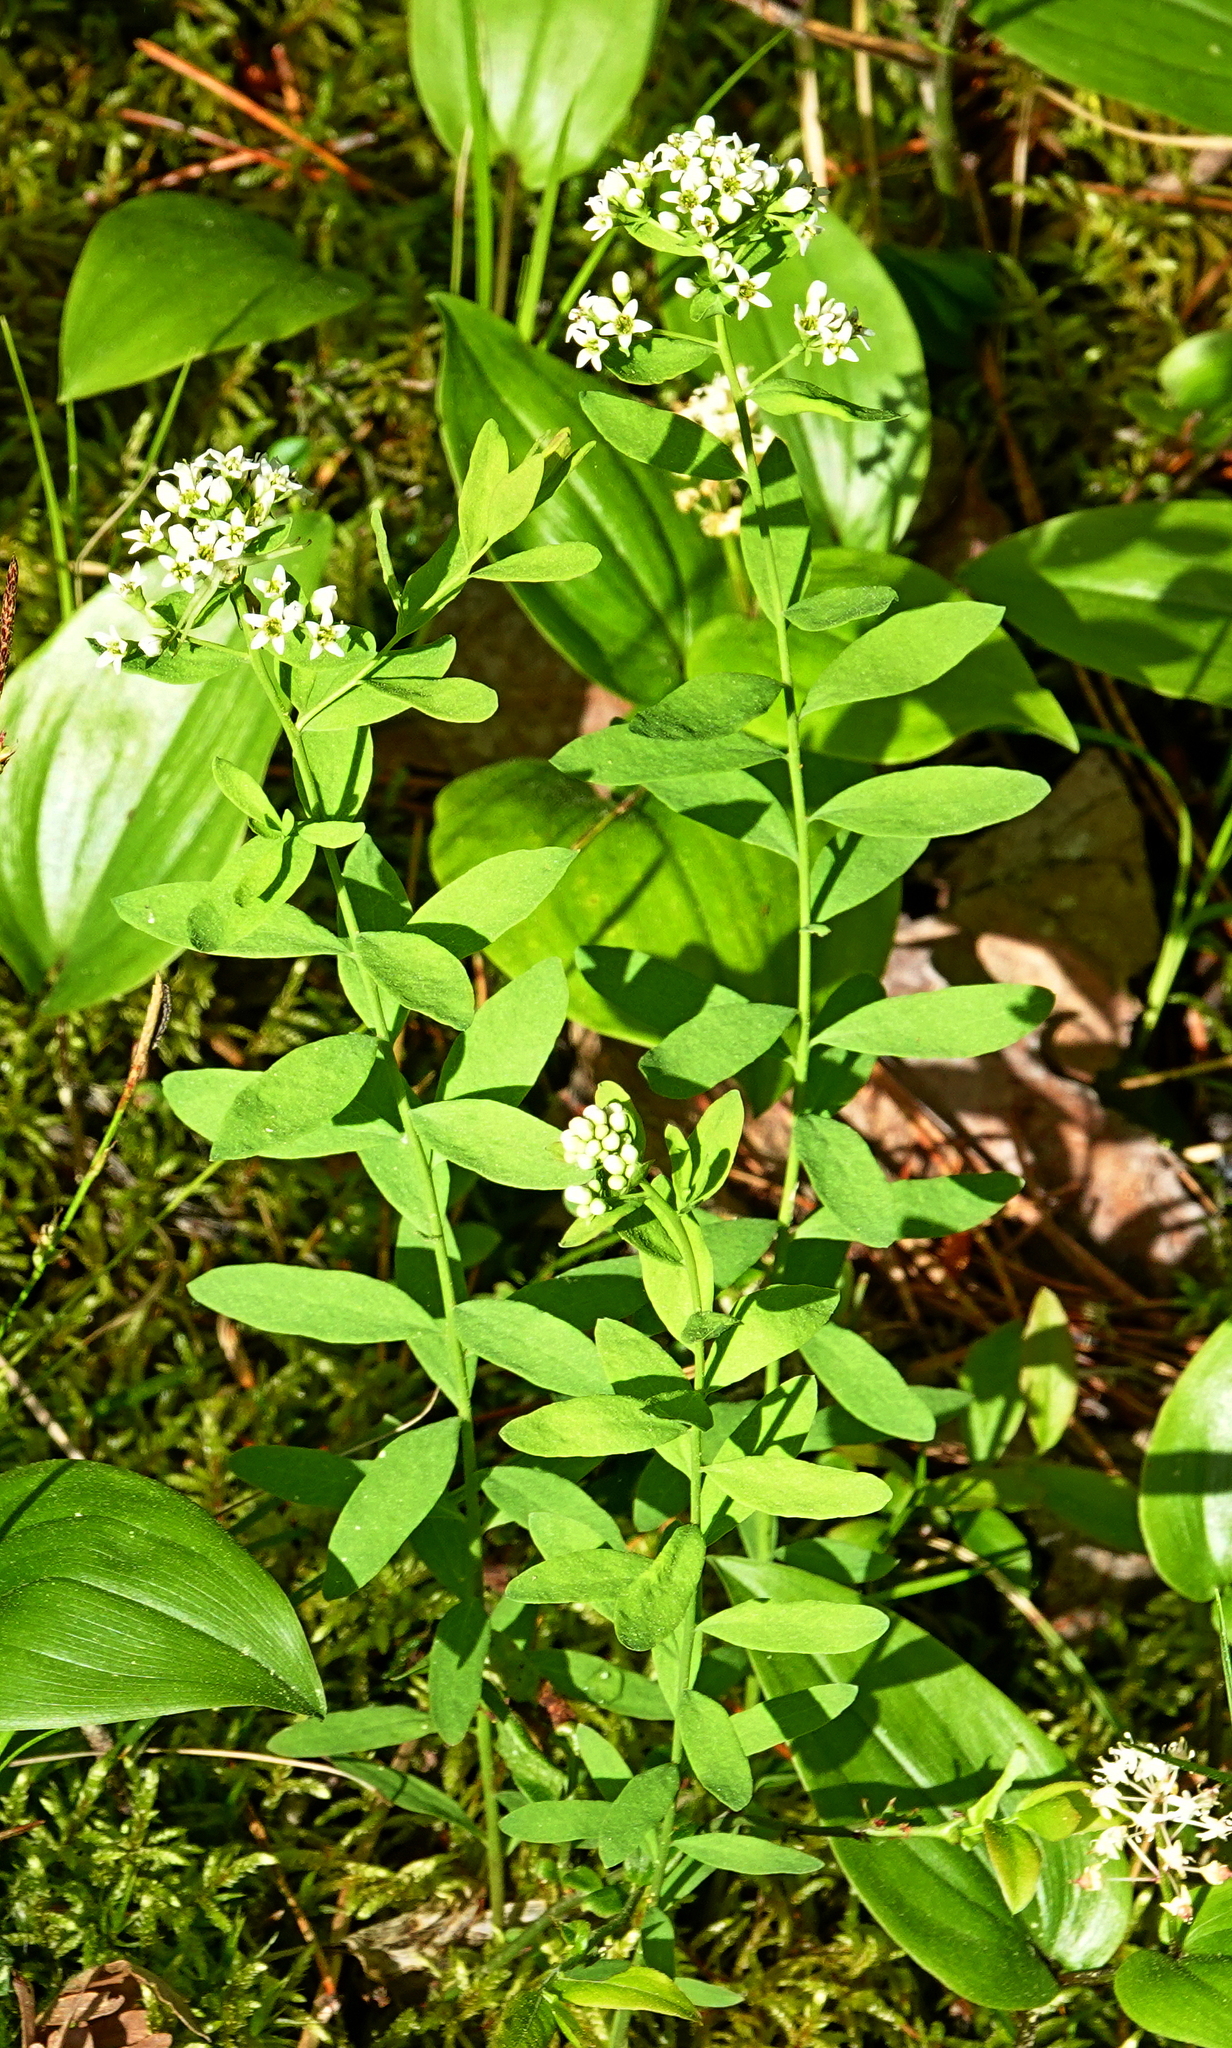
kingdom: Plantae
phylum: Tracheophyta
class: Magnoliopsida
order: Santalales
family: Comandraceae
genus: Comandra
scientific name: Comandra umbellata
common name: Bastard toadflax
